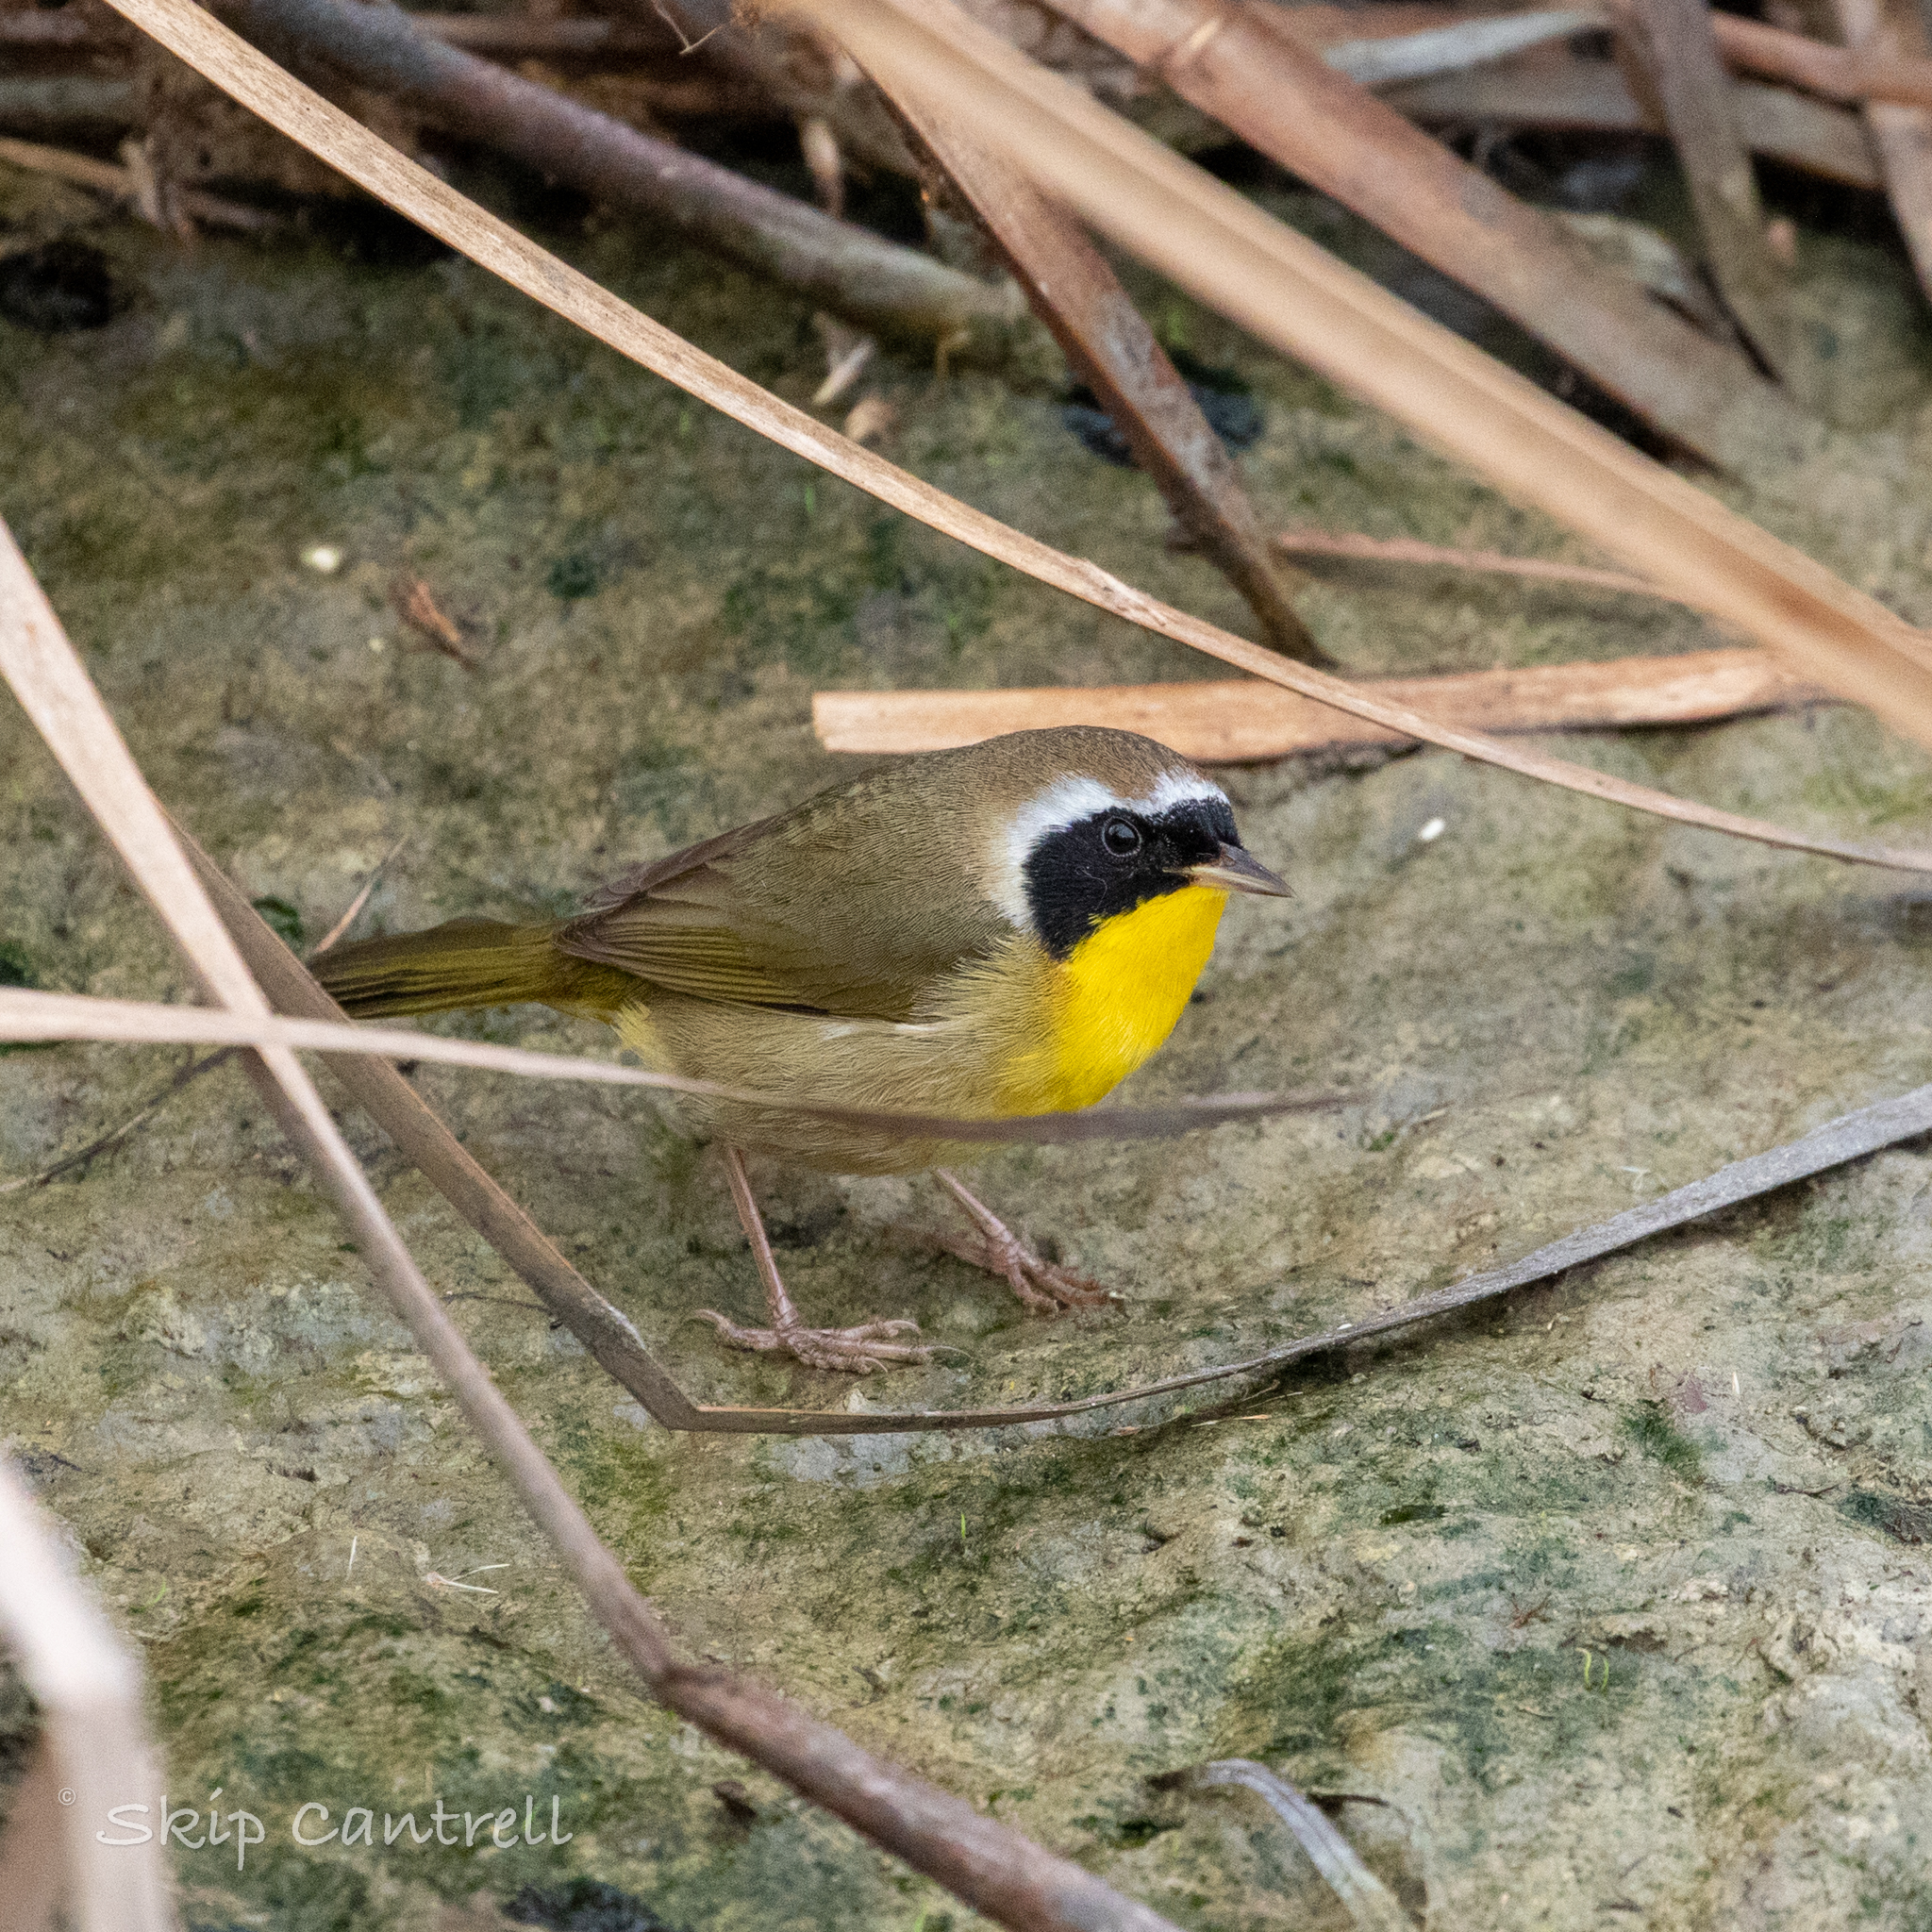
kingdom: Animalia
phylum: Chordata
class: Aves
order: Passeriformes
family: Parulidae
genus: Geothlypis
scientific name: Geothlypis trichas
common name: Common yellowthroat
